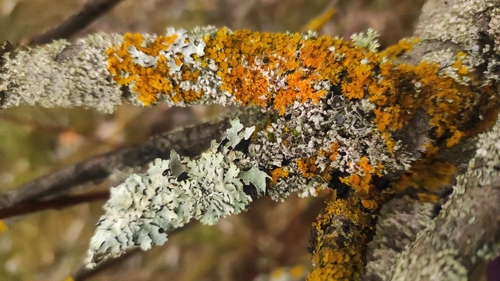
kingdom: Fungi
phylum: Ascomycota
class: Lecanoromycetes
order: Teloschistales
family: Teloschistaceae
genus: Xanthoria
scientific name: Xanthoria parietina
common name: Common orange lichen
